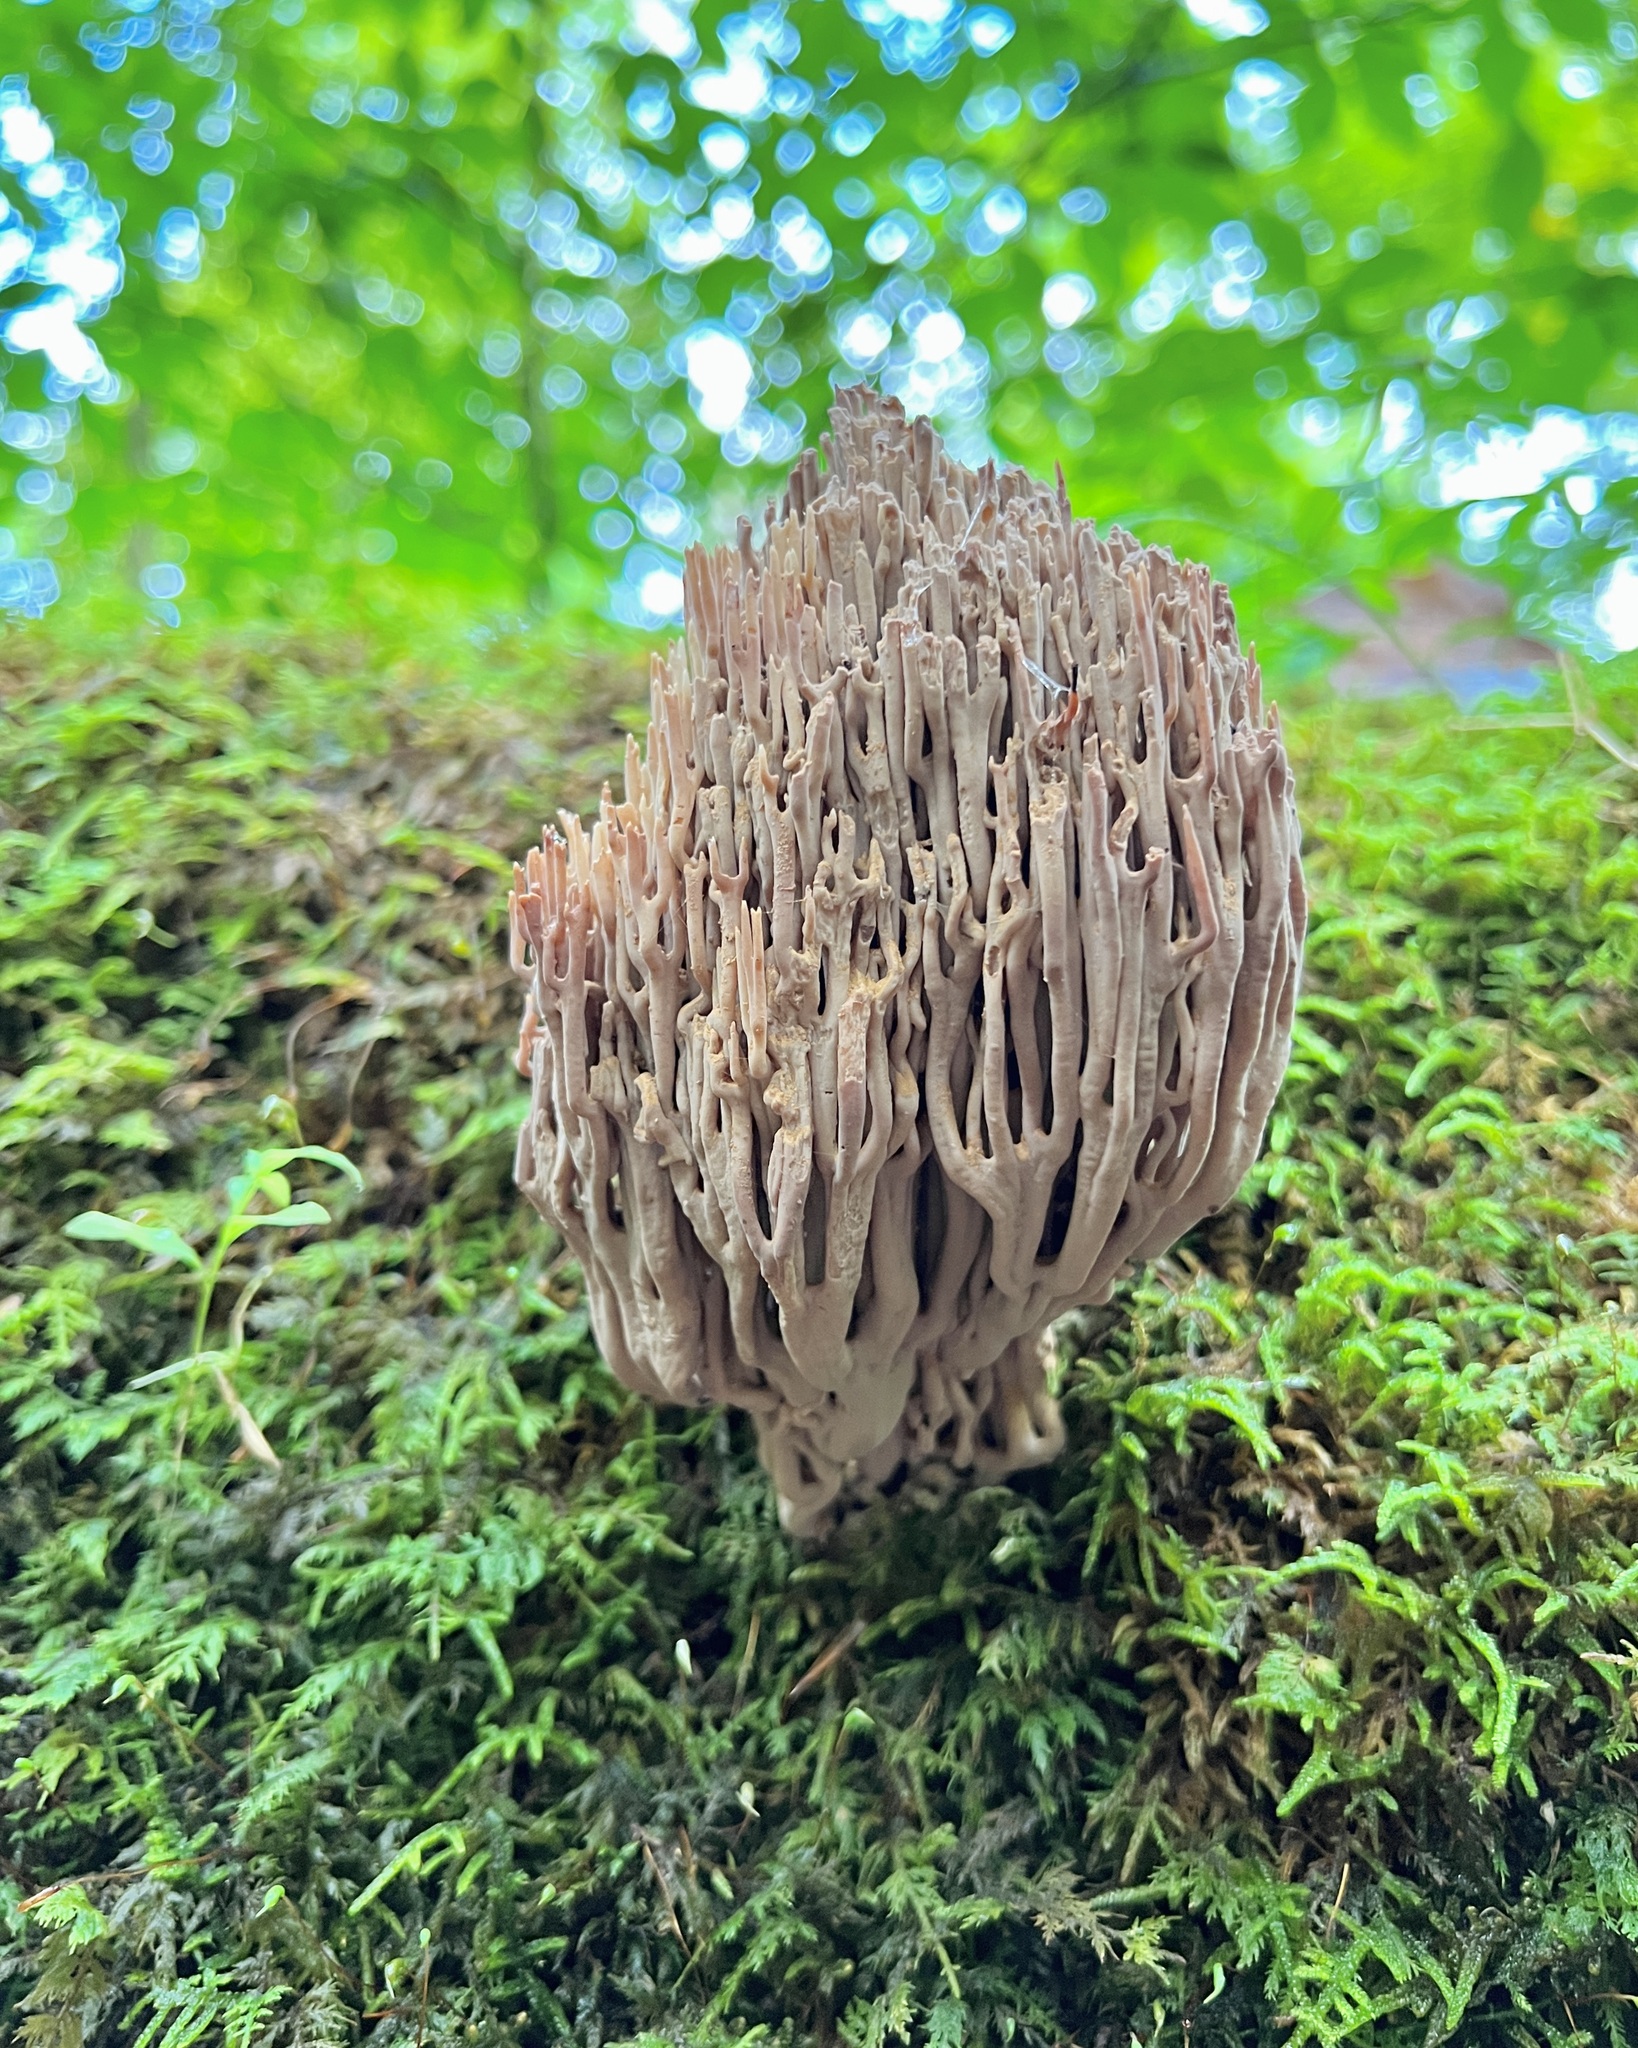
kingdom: Fungi
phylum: Basidiomycota
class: Agaricomycetes
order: Gomphales
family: Gomphaceae
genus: Ramaria
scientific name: Ramaria stricta
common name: Upright coral
